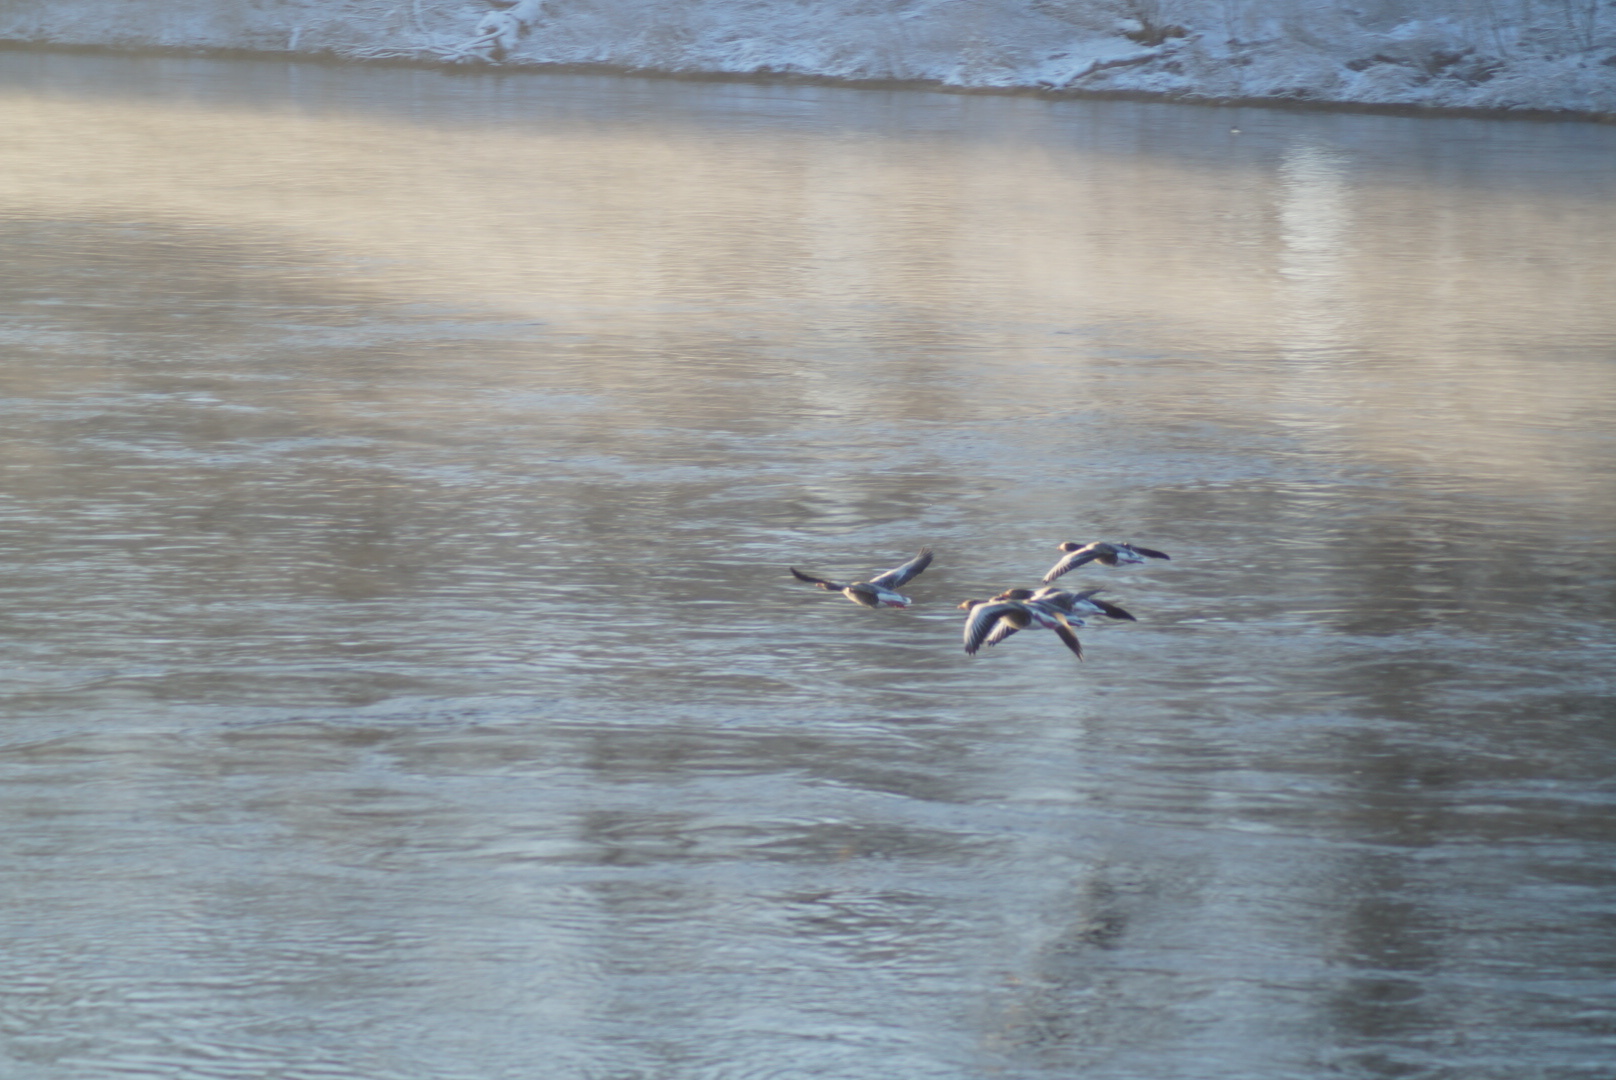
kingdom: Animalia
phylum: Chordata
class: Aves
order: Anseriformes
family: Anatidae
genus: Anser
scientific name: Anser anser
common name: Greylag goose
